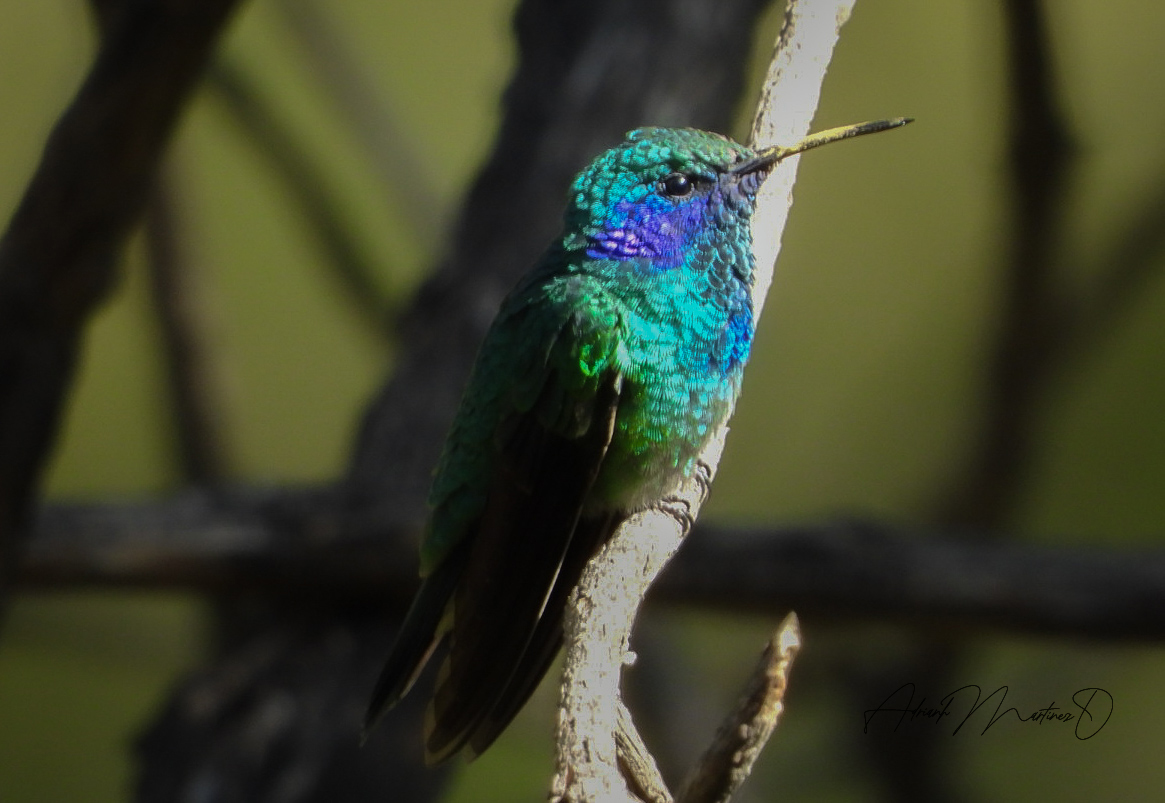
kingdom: Animalia
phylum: Chordata
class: Aves
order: Apodiformes
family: Trochilidae
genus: Colibri
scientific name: Colibri thalassinus
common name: Green violetear
